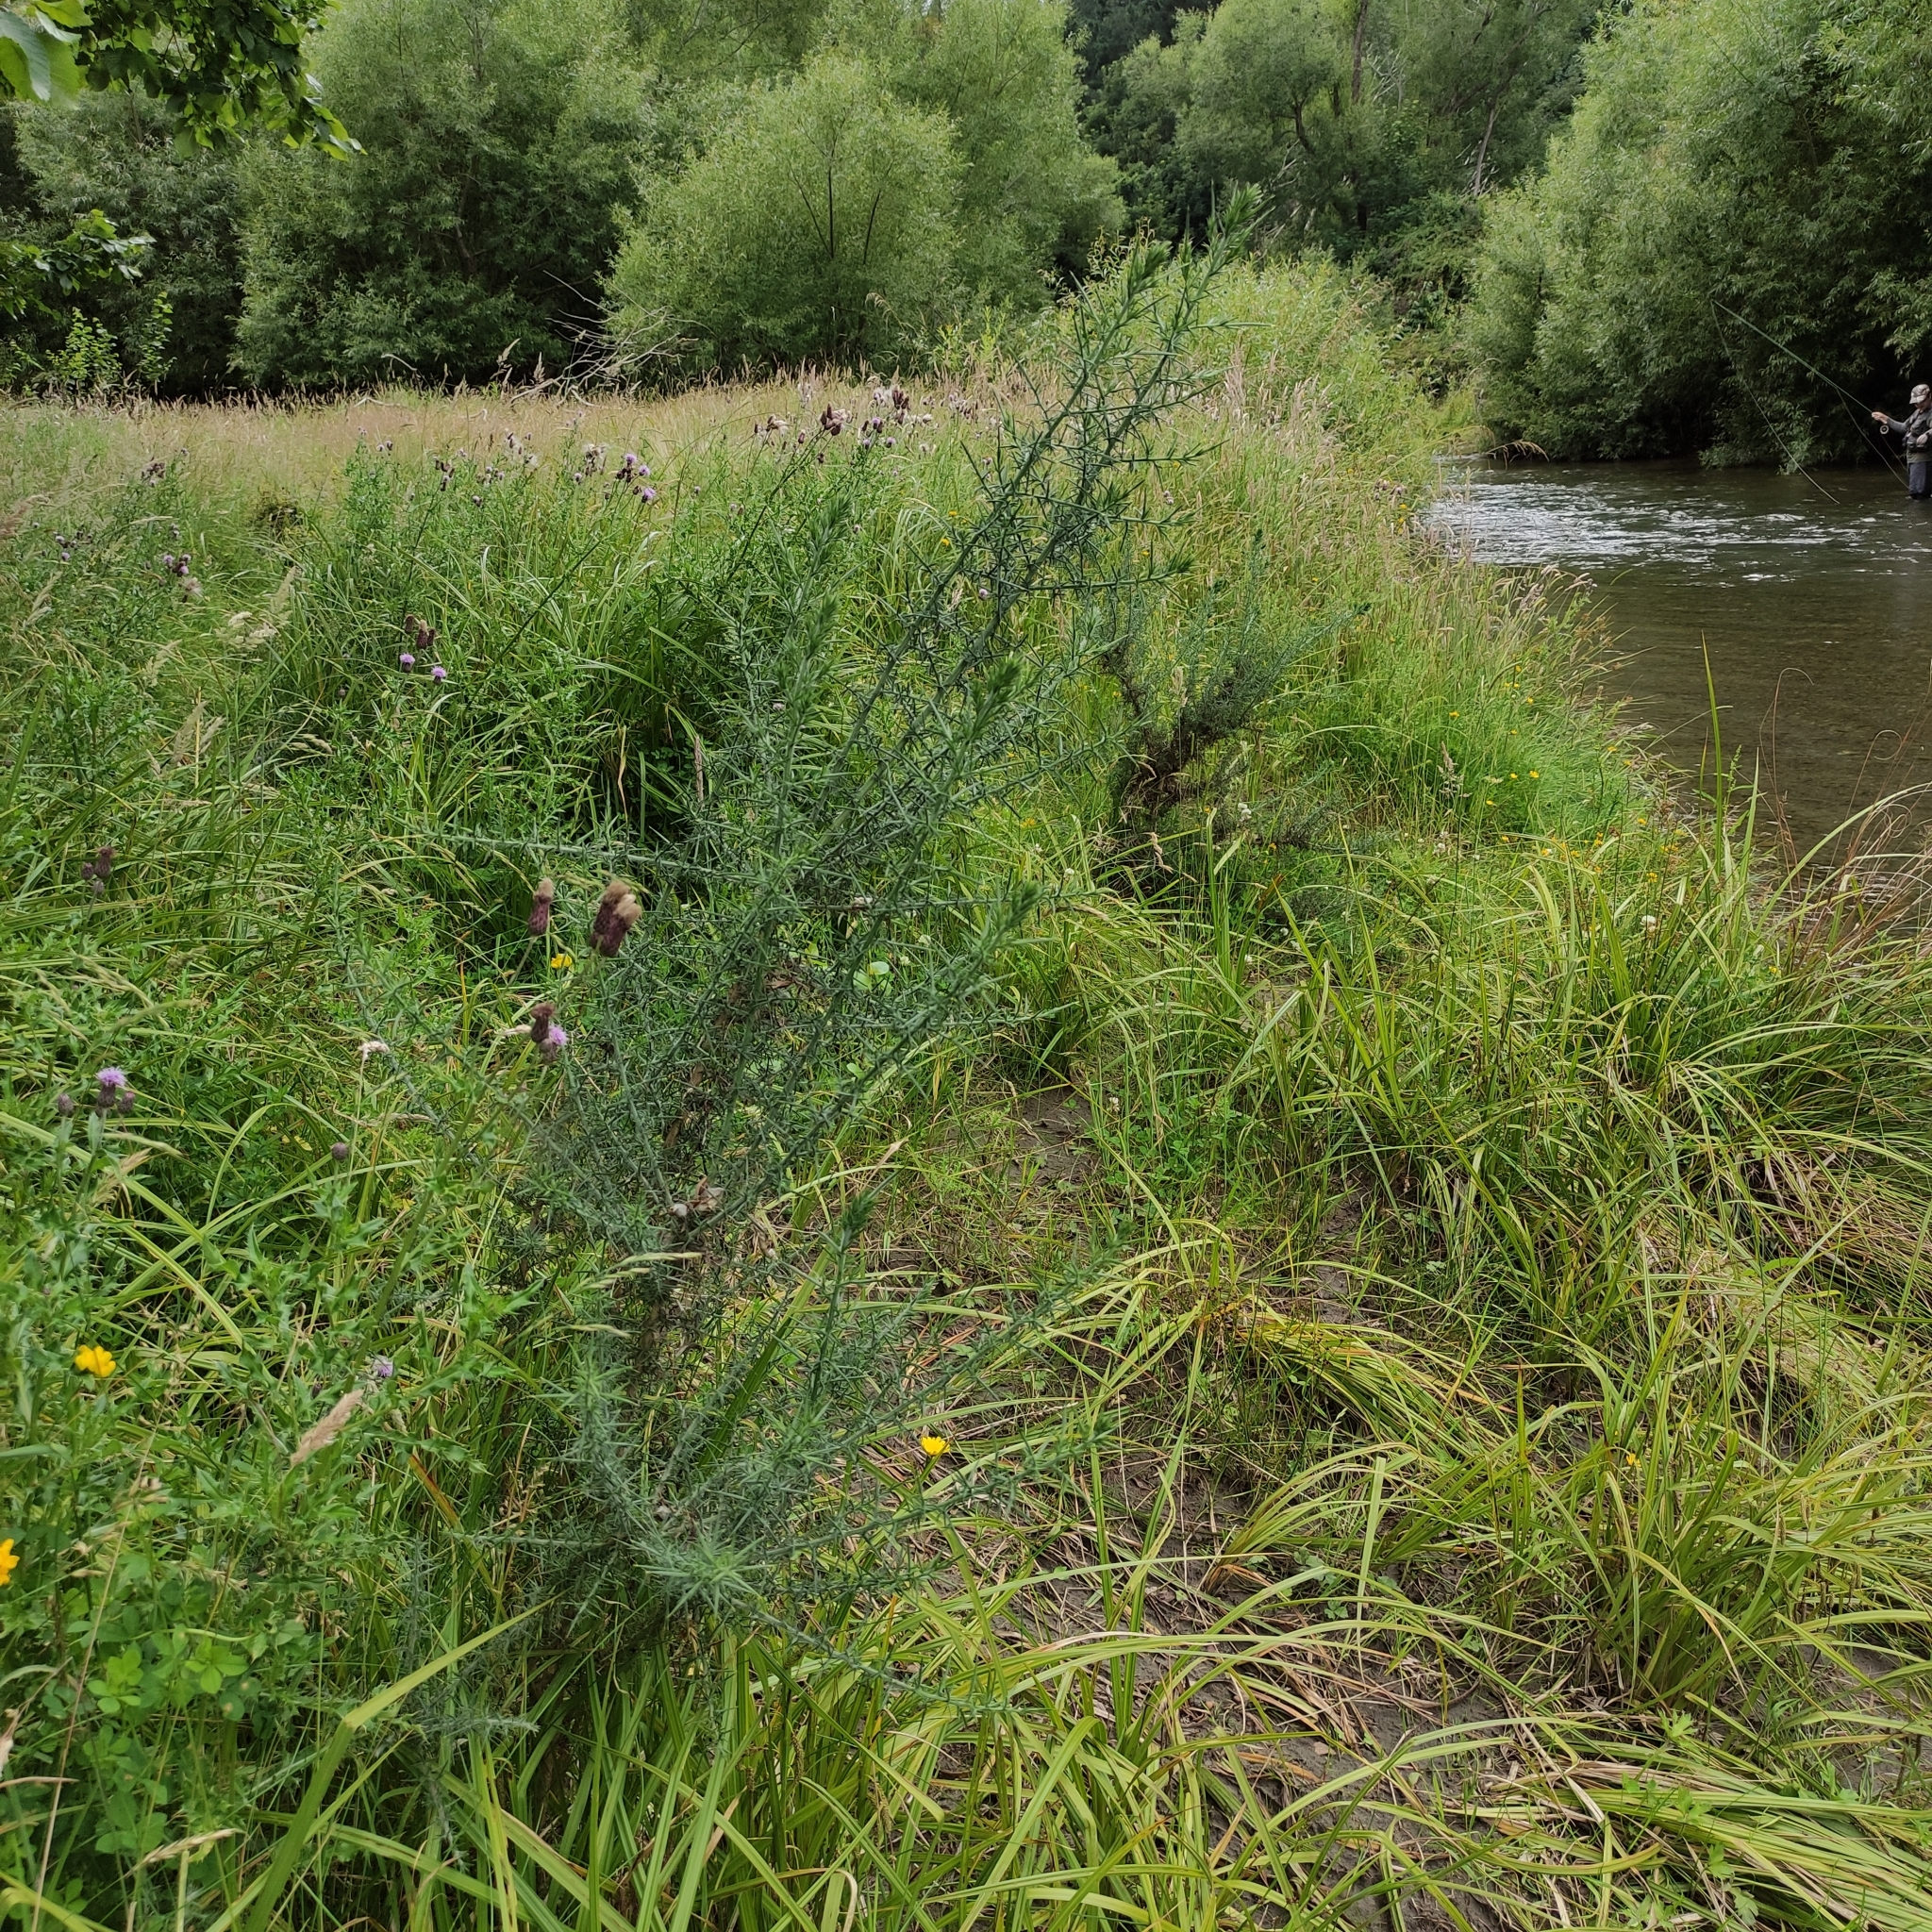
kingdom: Plantae
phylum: Tracheophyta
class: Magnoliopsida
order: Fabales
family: Fabaceae
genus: Ulex
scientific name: Ulex europaeus
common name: Common gorse
